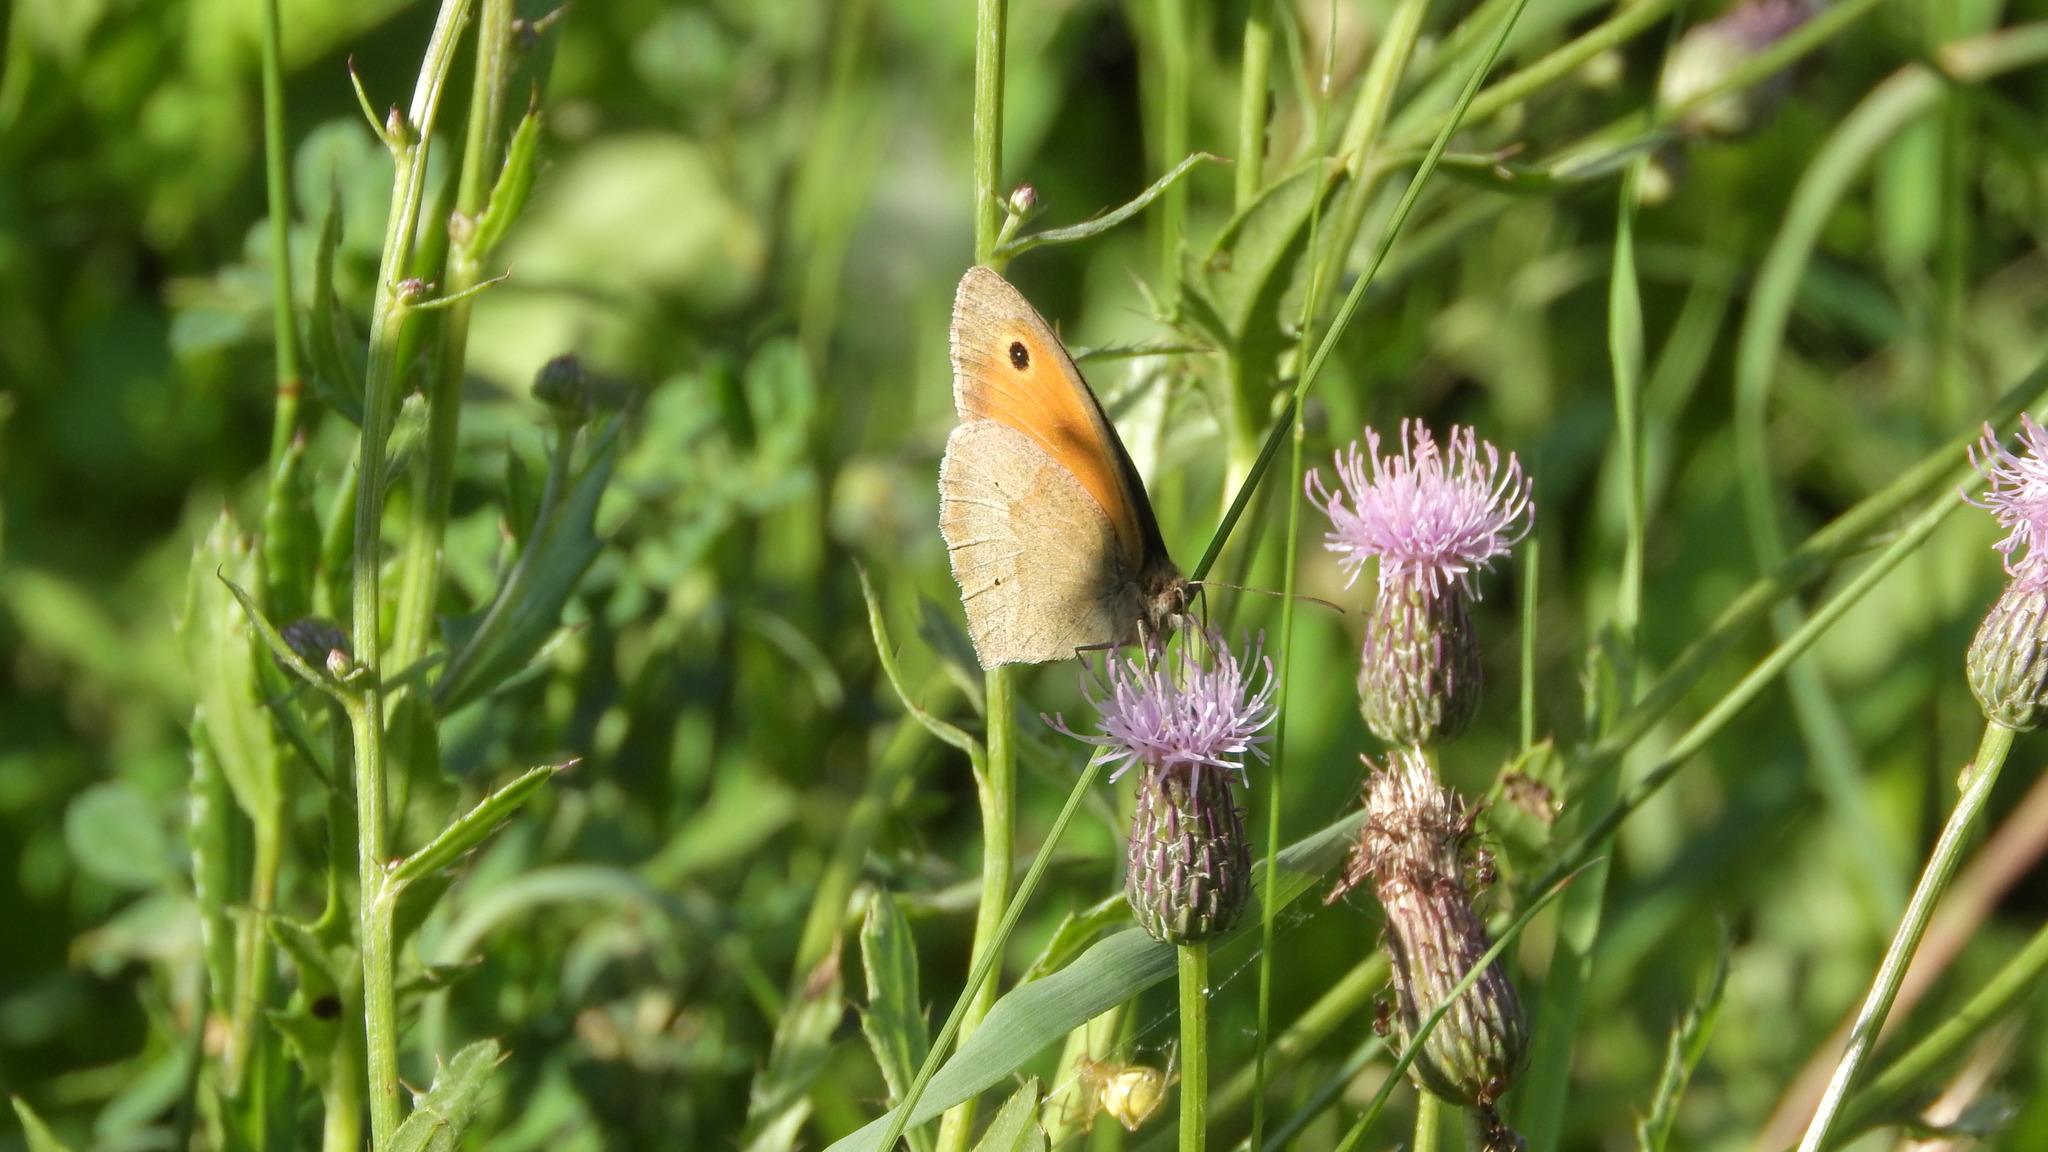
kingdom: Animalia
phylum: Arthropoda
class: Insecta
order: Lepidoptera
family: Nymphalidae
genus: Maniola
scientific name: Maniola jurtina
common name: Meadow brown
